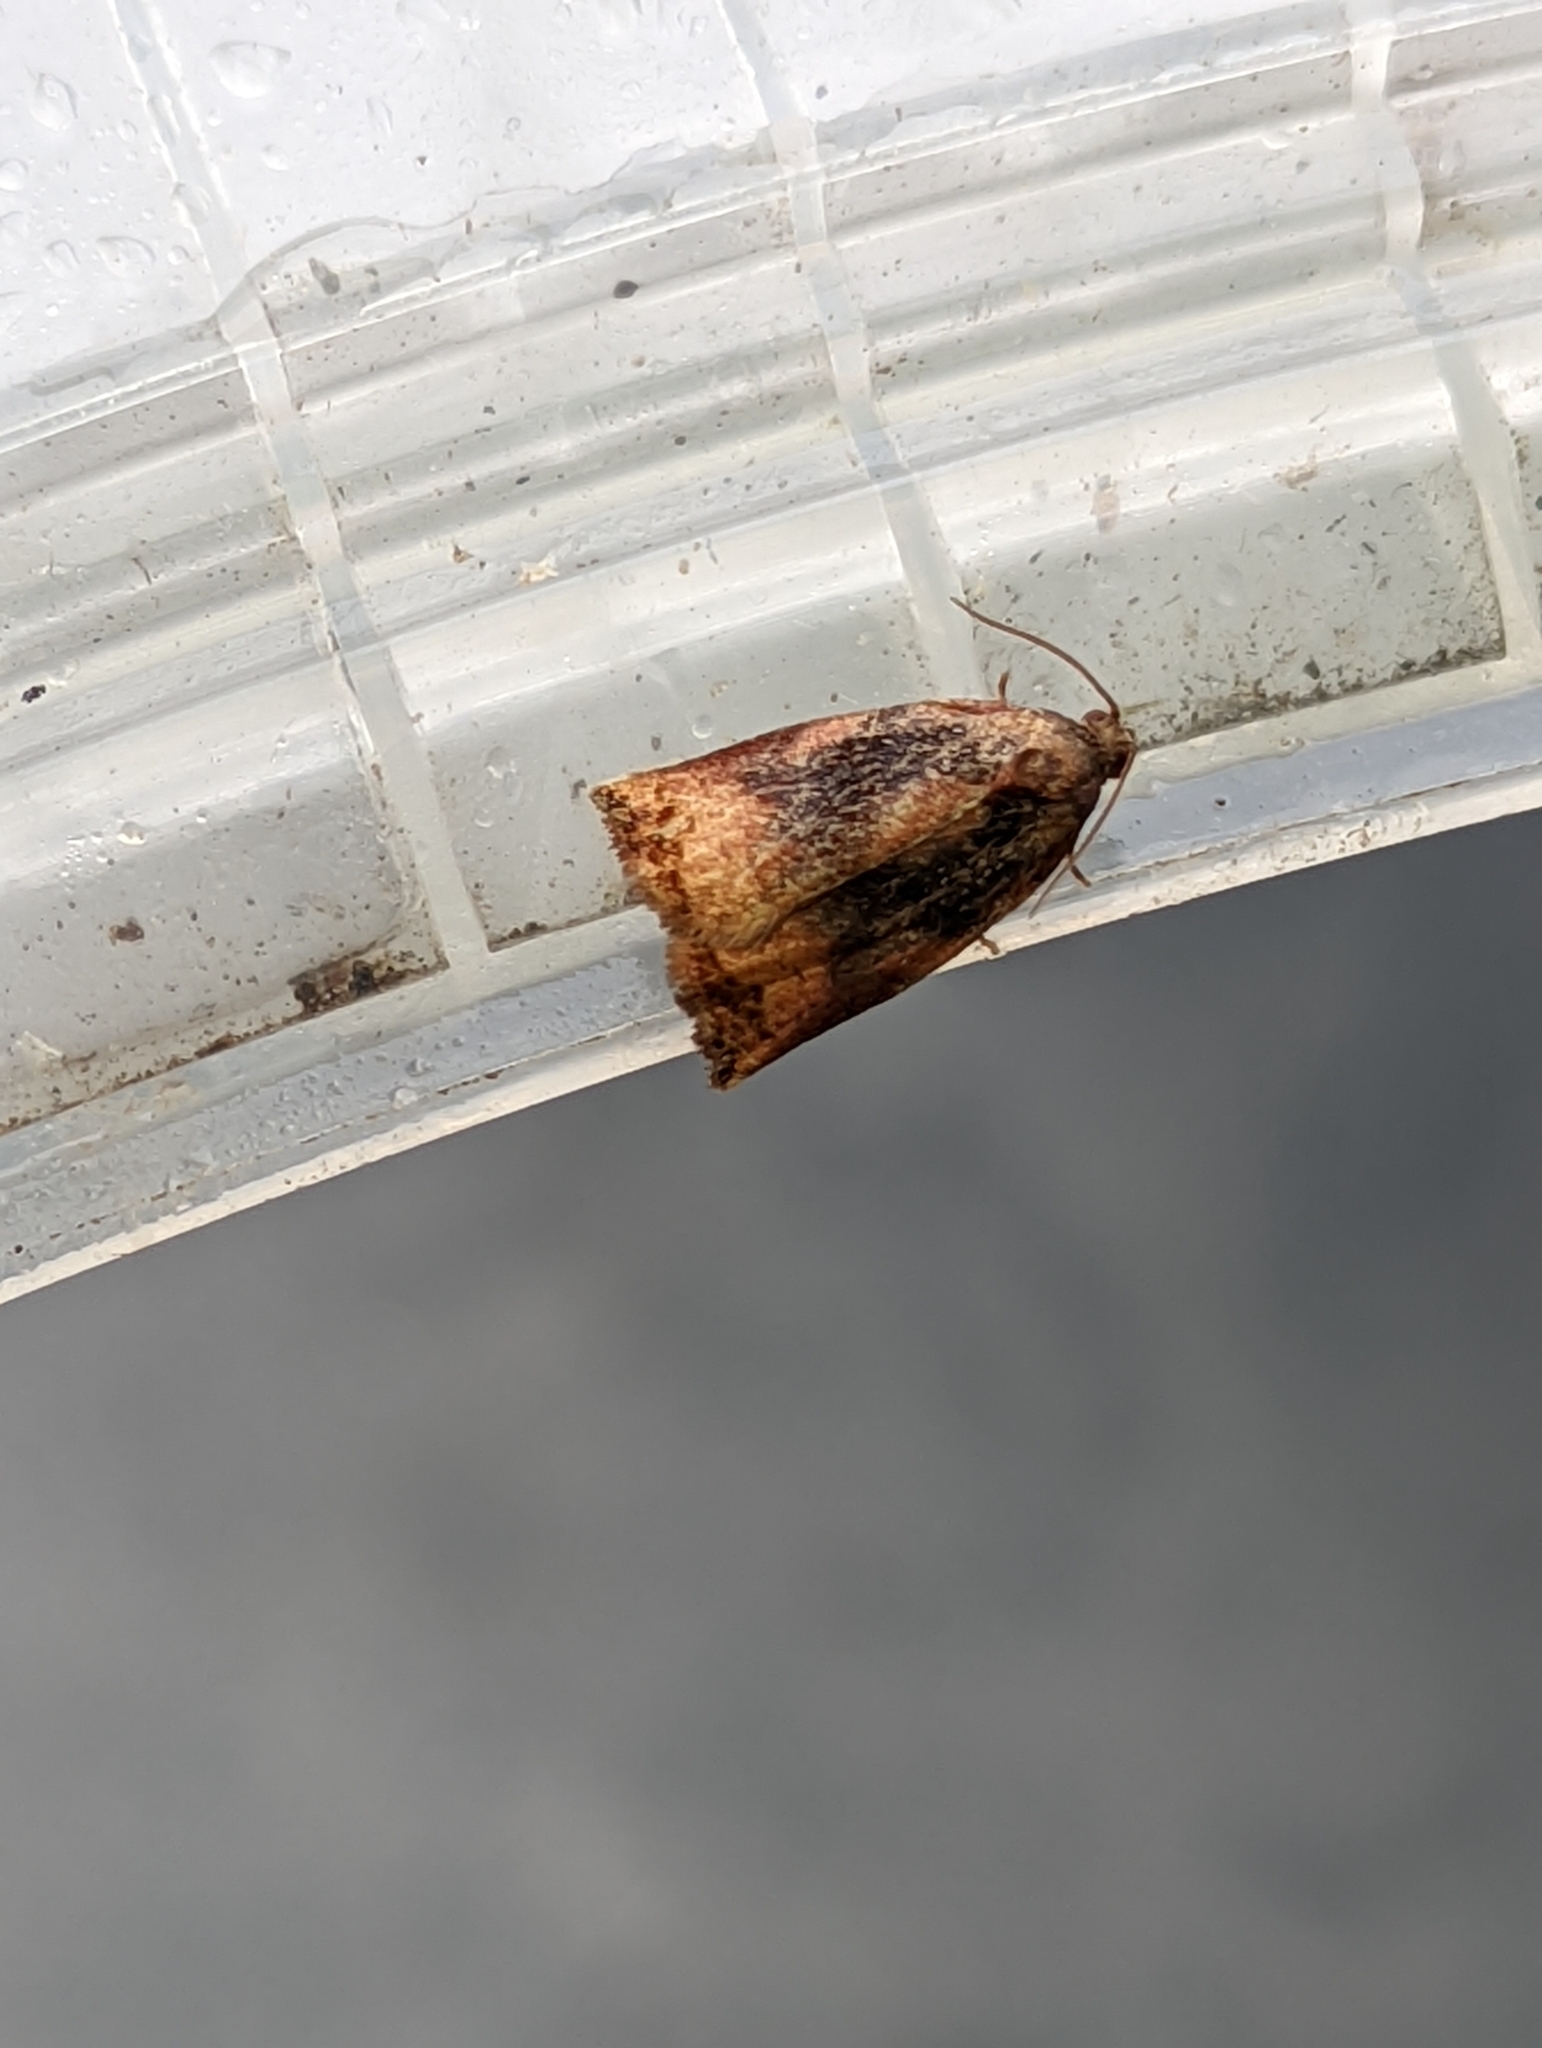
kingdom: Animalia
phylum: Arthropoda
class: Insecta
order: Lepidoptera
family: Tortricidae
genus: Archips
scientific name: Archips podana
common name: Large fruit-tree tortrix
